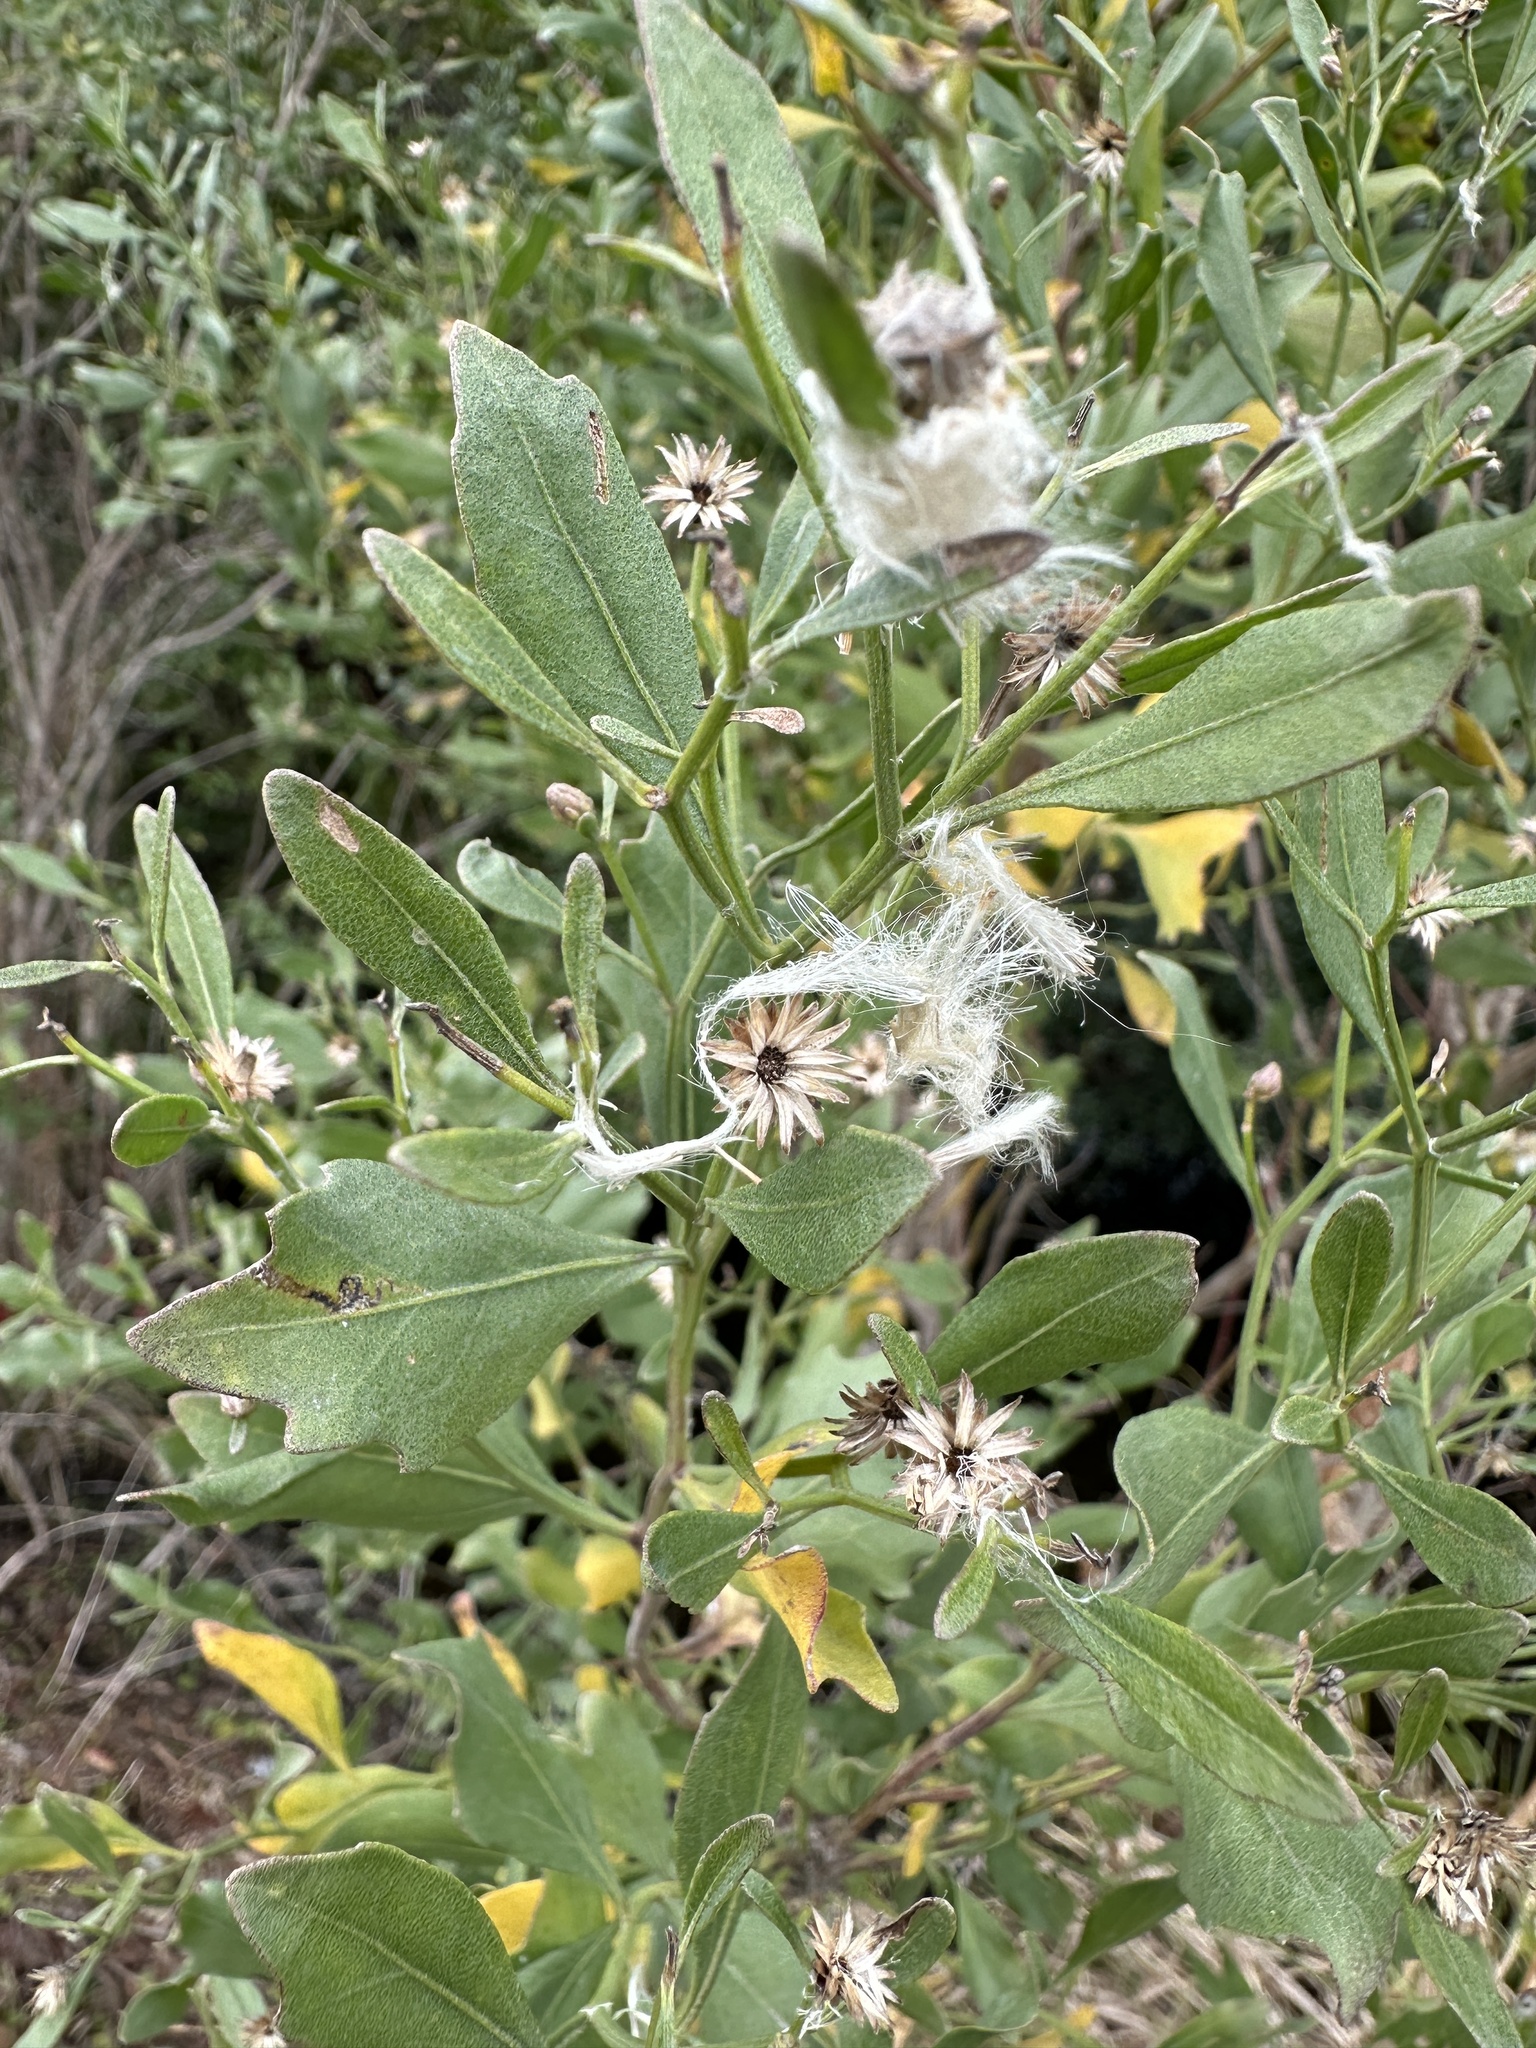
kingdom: Plantae
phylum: Tracheophyta
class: Magnoliopsida
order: Asterales
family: Asteraceae
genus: Baccharis
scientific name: Baccharis halimifolia
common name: Eastern baccharis
